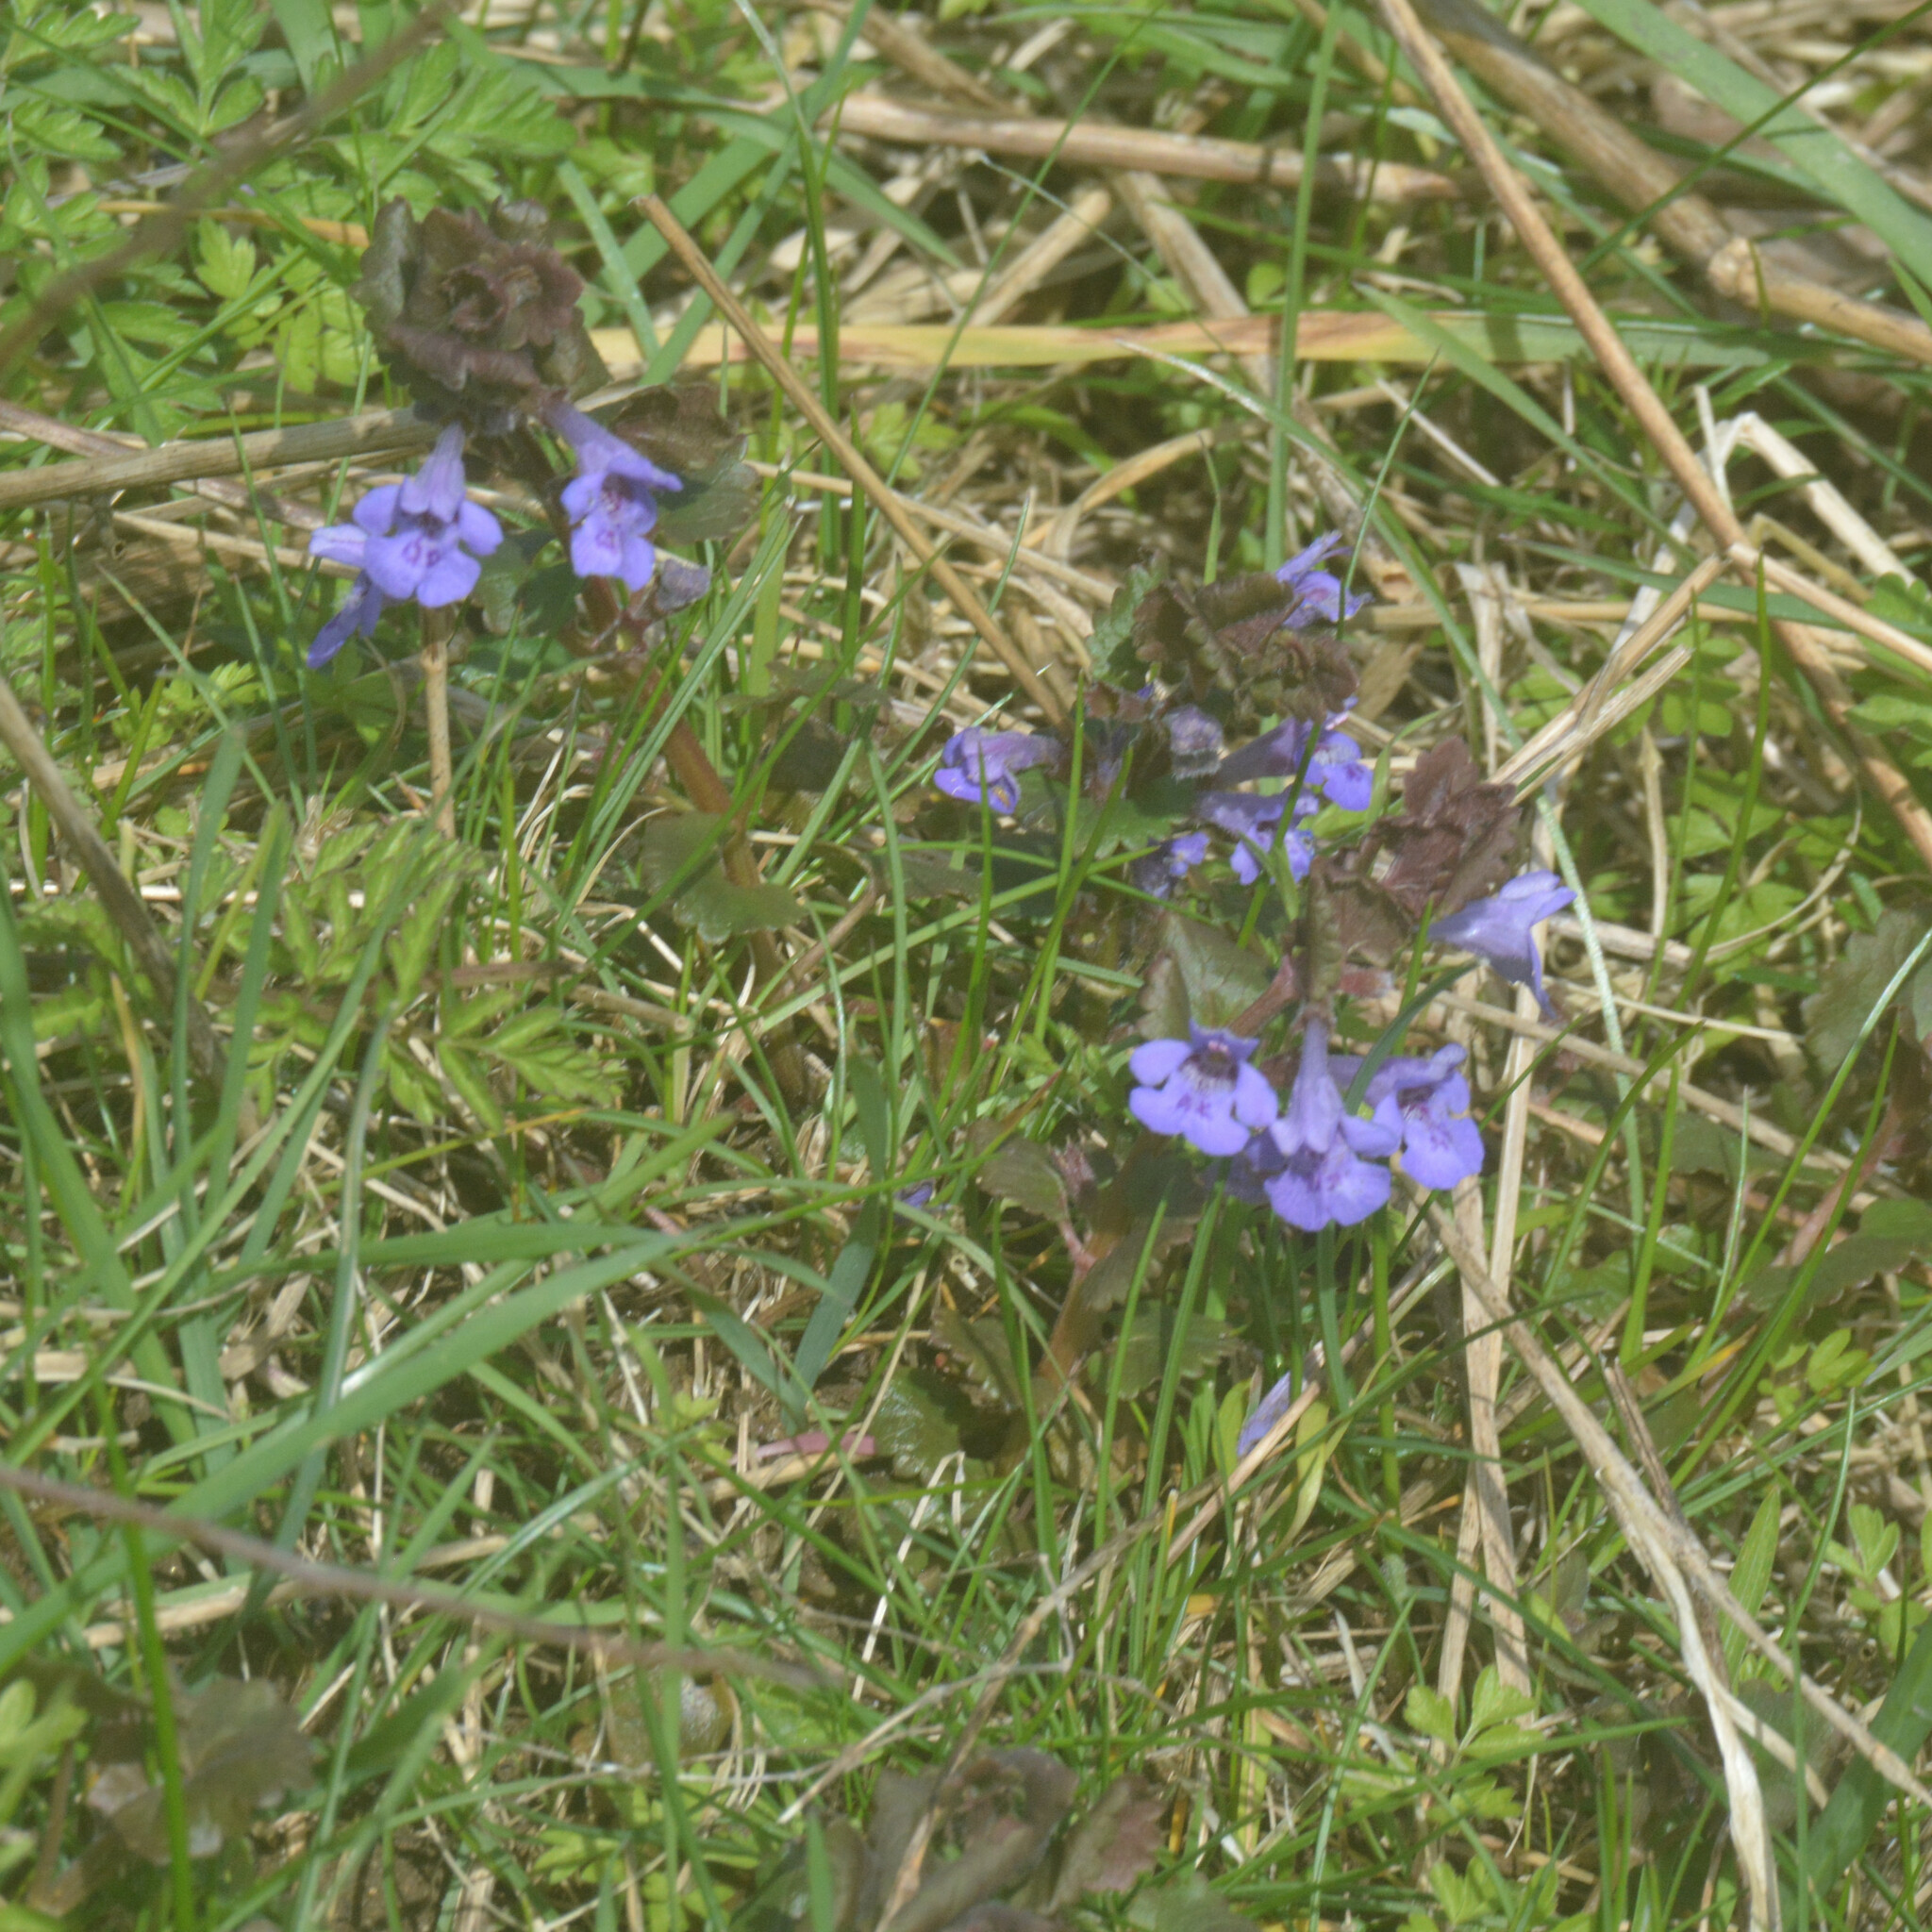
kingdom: Plantae
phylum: Tracheophyta
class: Magnoliopsida
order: Lamiales
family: Lamiaceae
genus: Glechoma
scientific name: Glechoma hederacea
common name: Ground ivy
